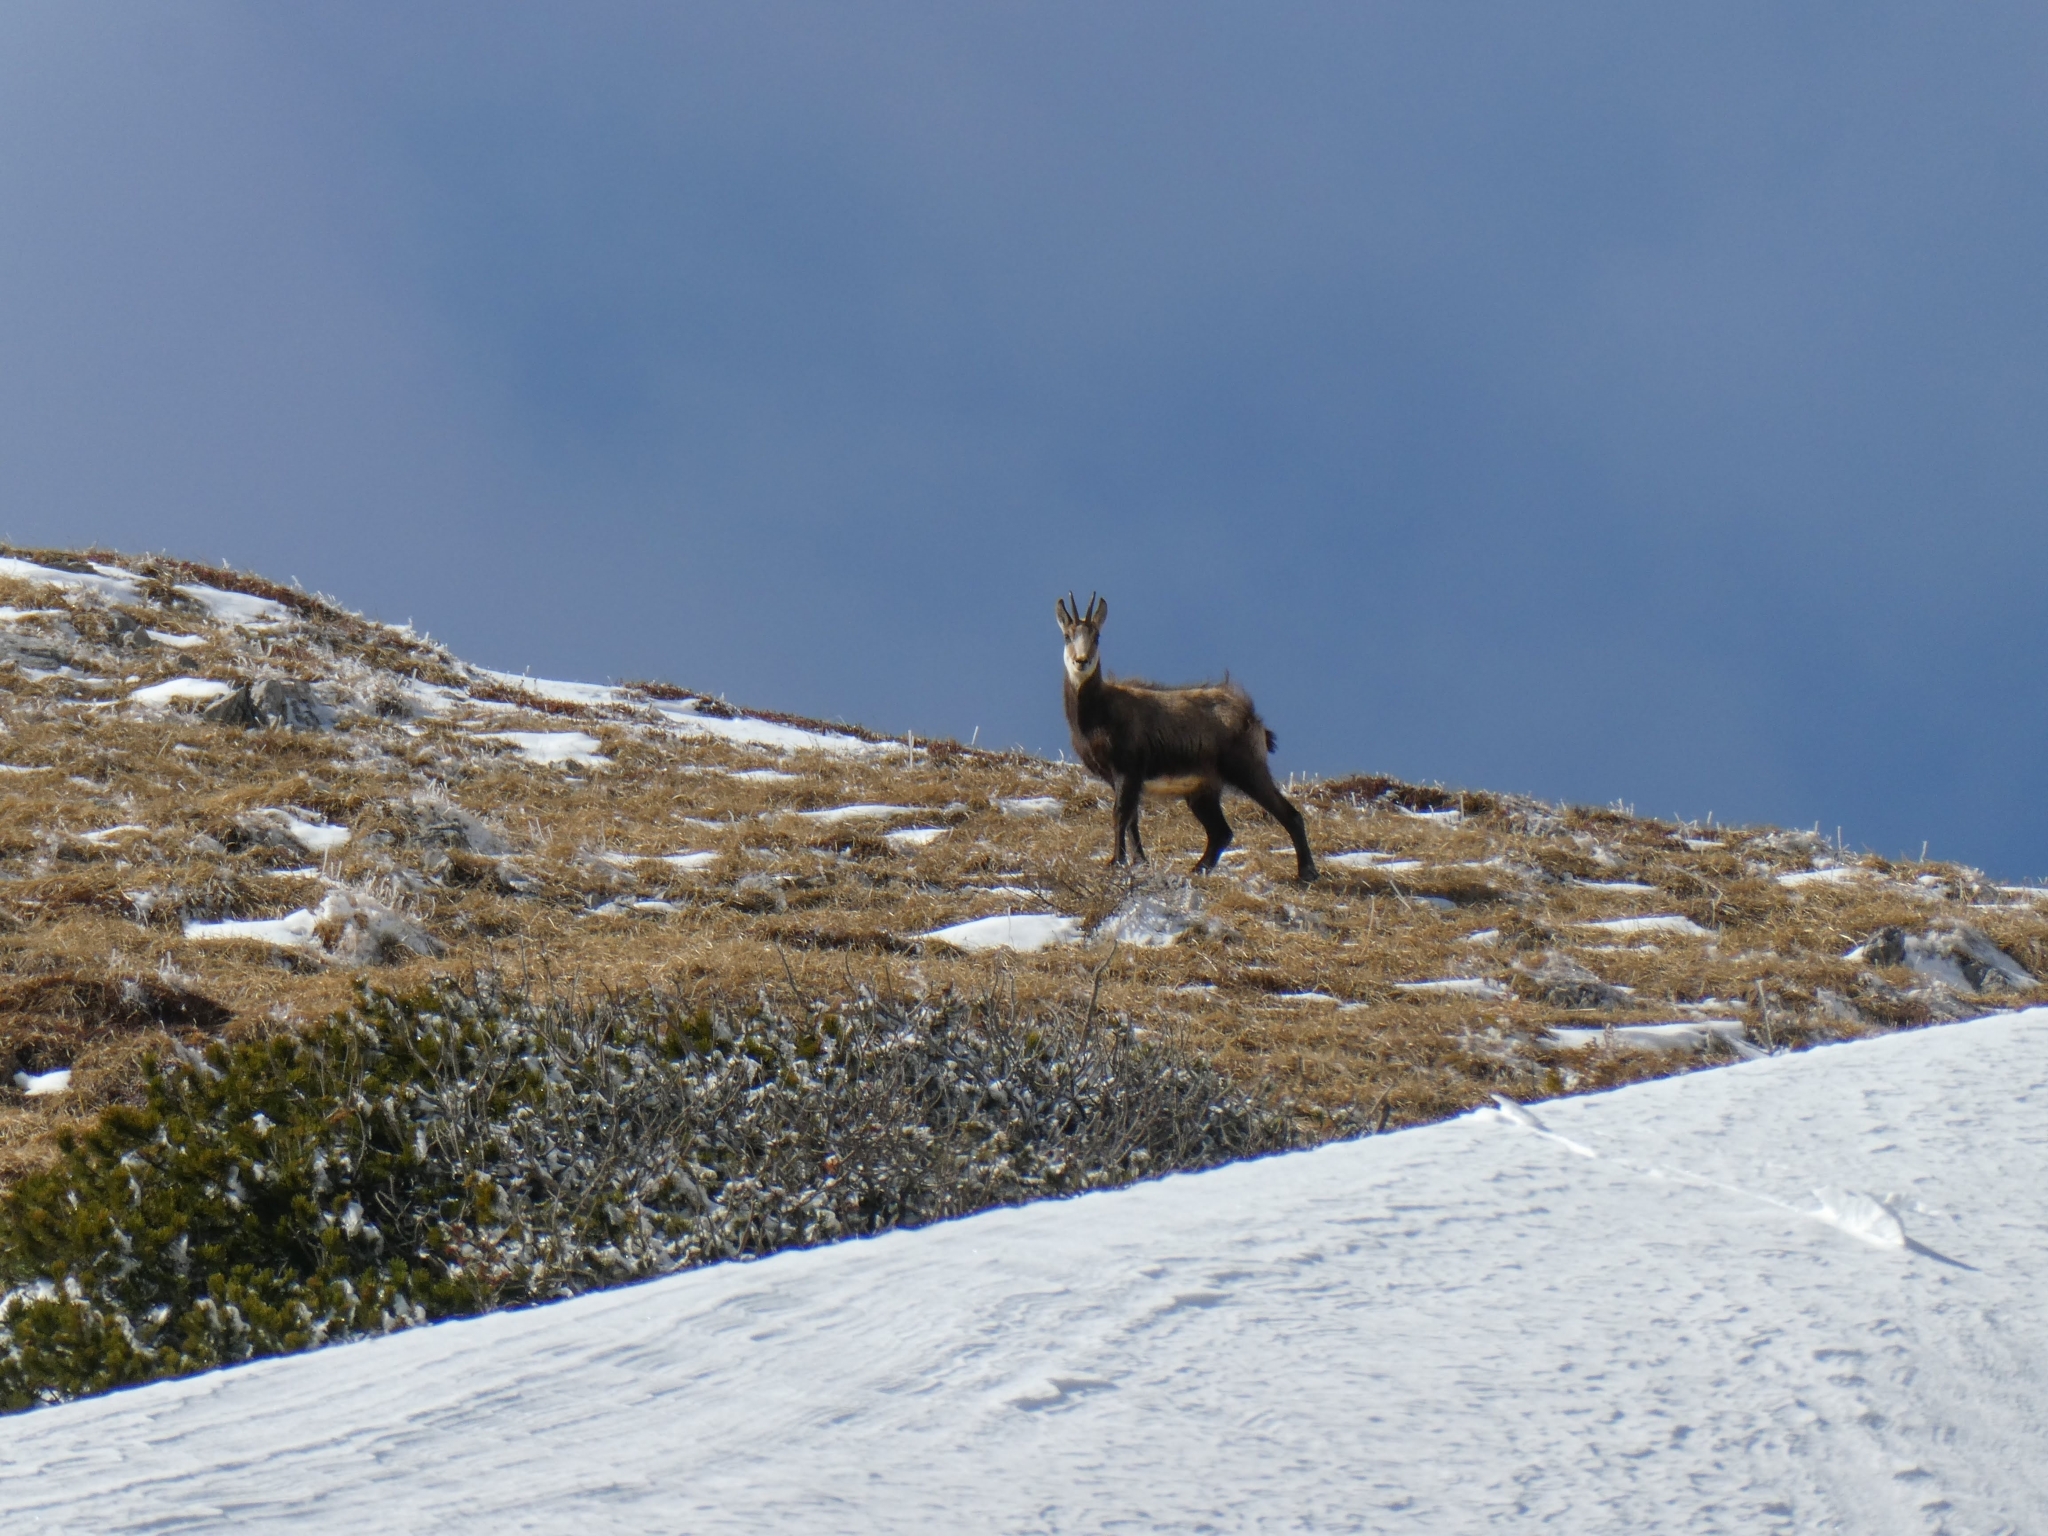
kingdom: Animalia
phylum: Chordata
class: Mammalia
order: Artiodactyla
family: Bovidae
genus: Rupicapra
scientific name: Rupicapra rupicapra
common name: Chamois
